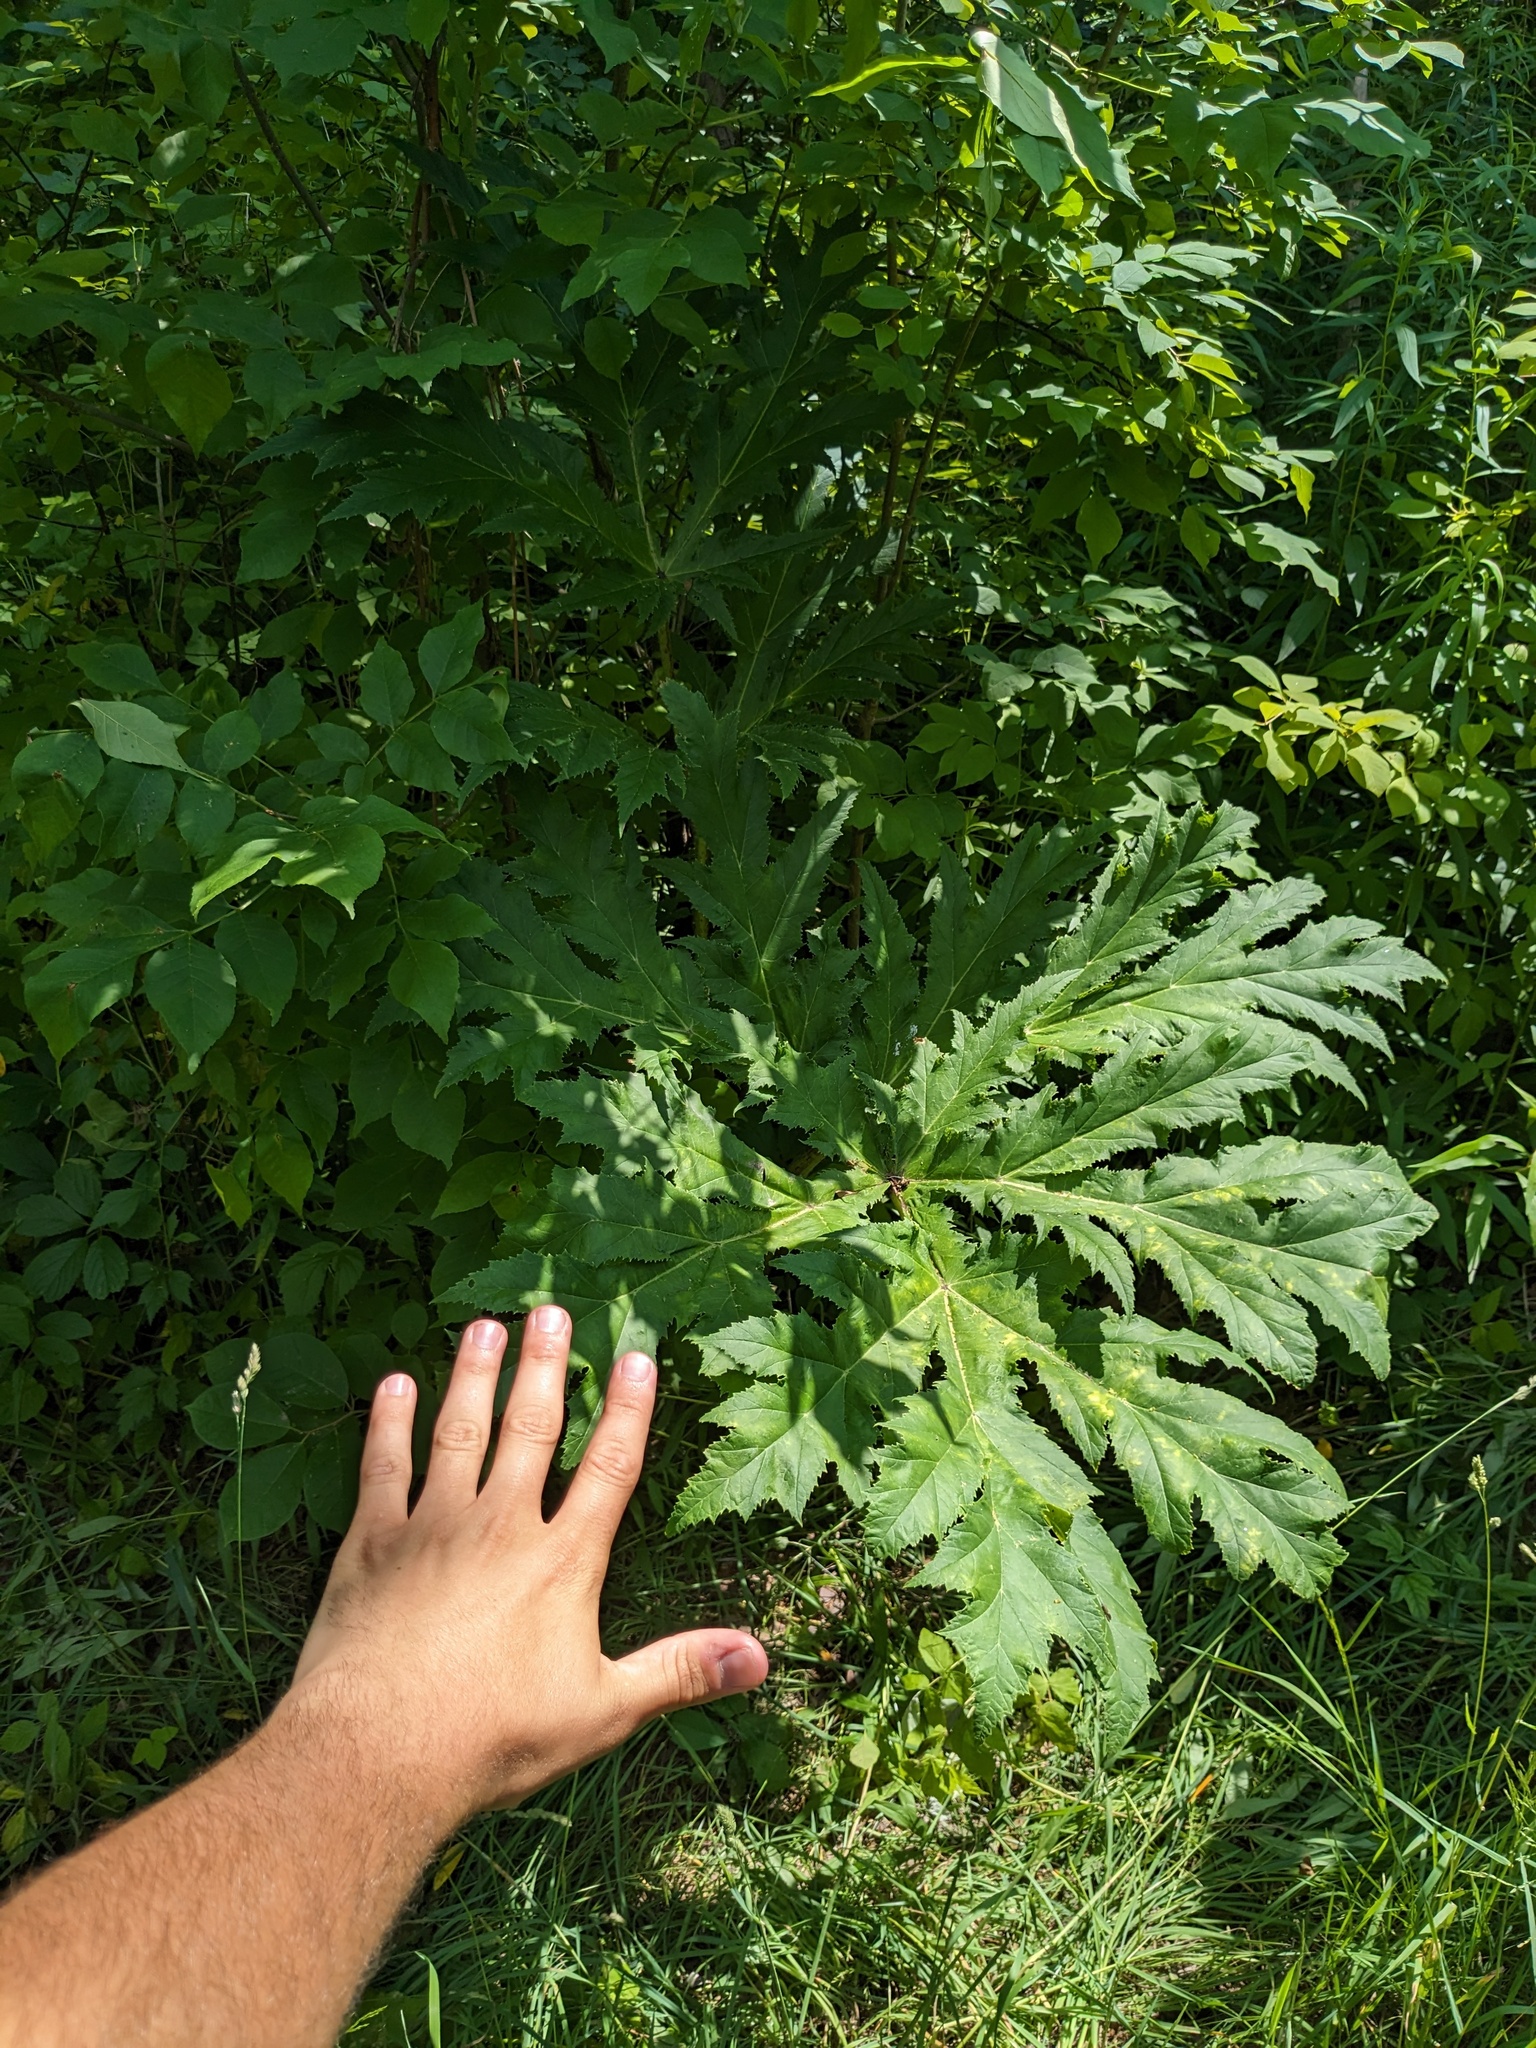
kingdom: Plantae
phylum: Tracheophyta
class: Magnoliopsida
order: Apiales
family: Apiaceae
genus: Heracleum
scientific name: Heracleum mantegazzianum
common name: Giant hogweed
